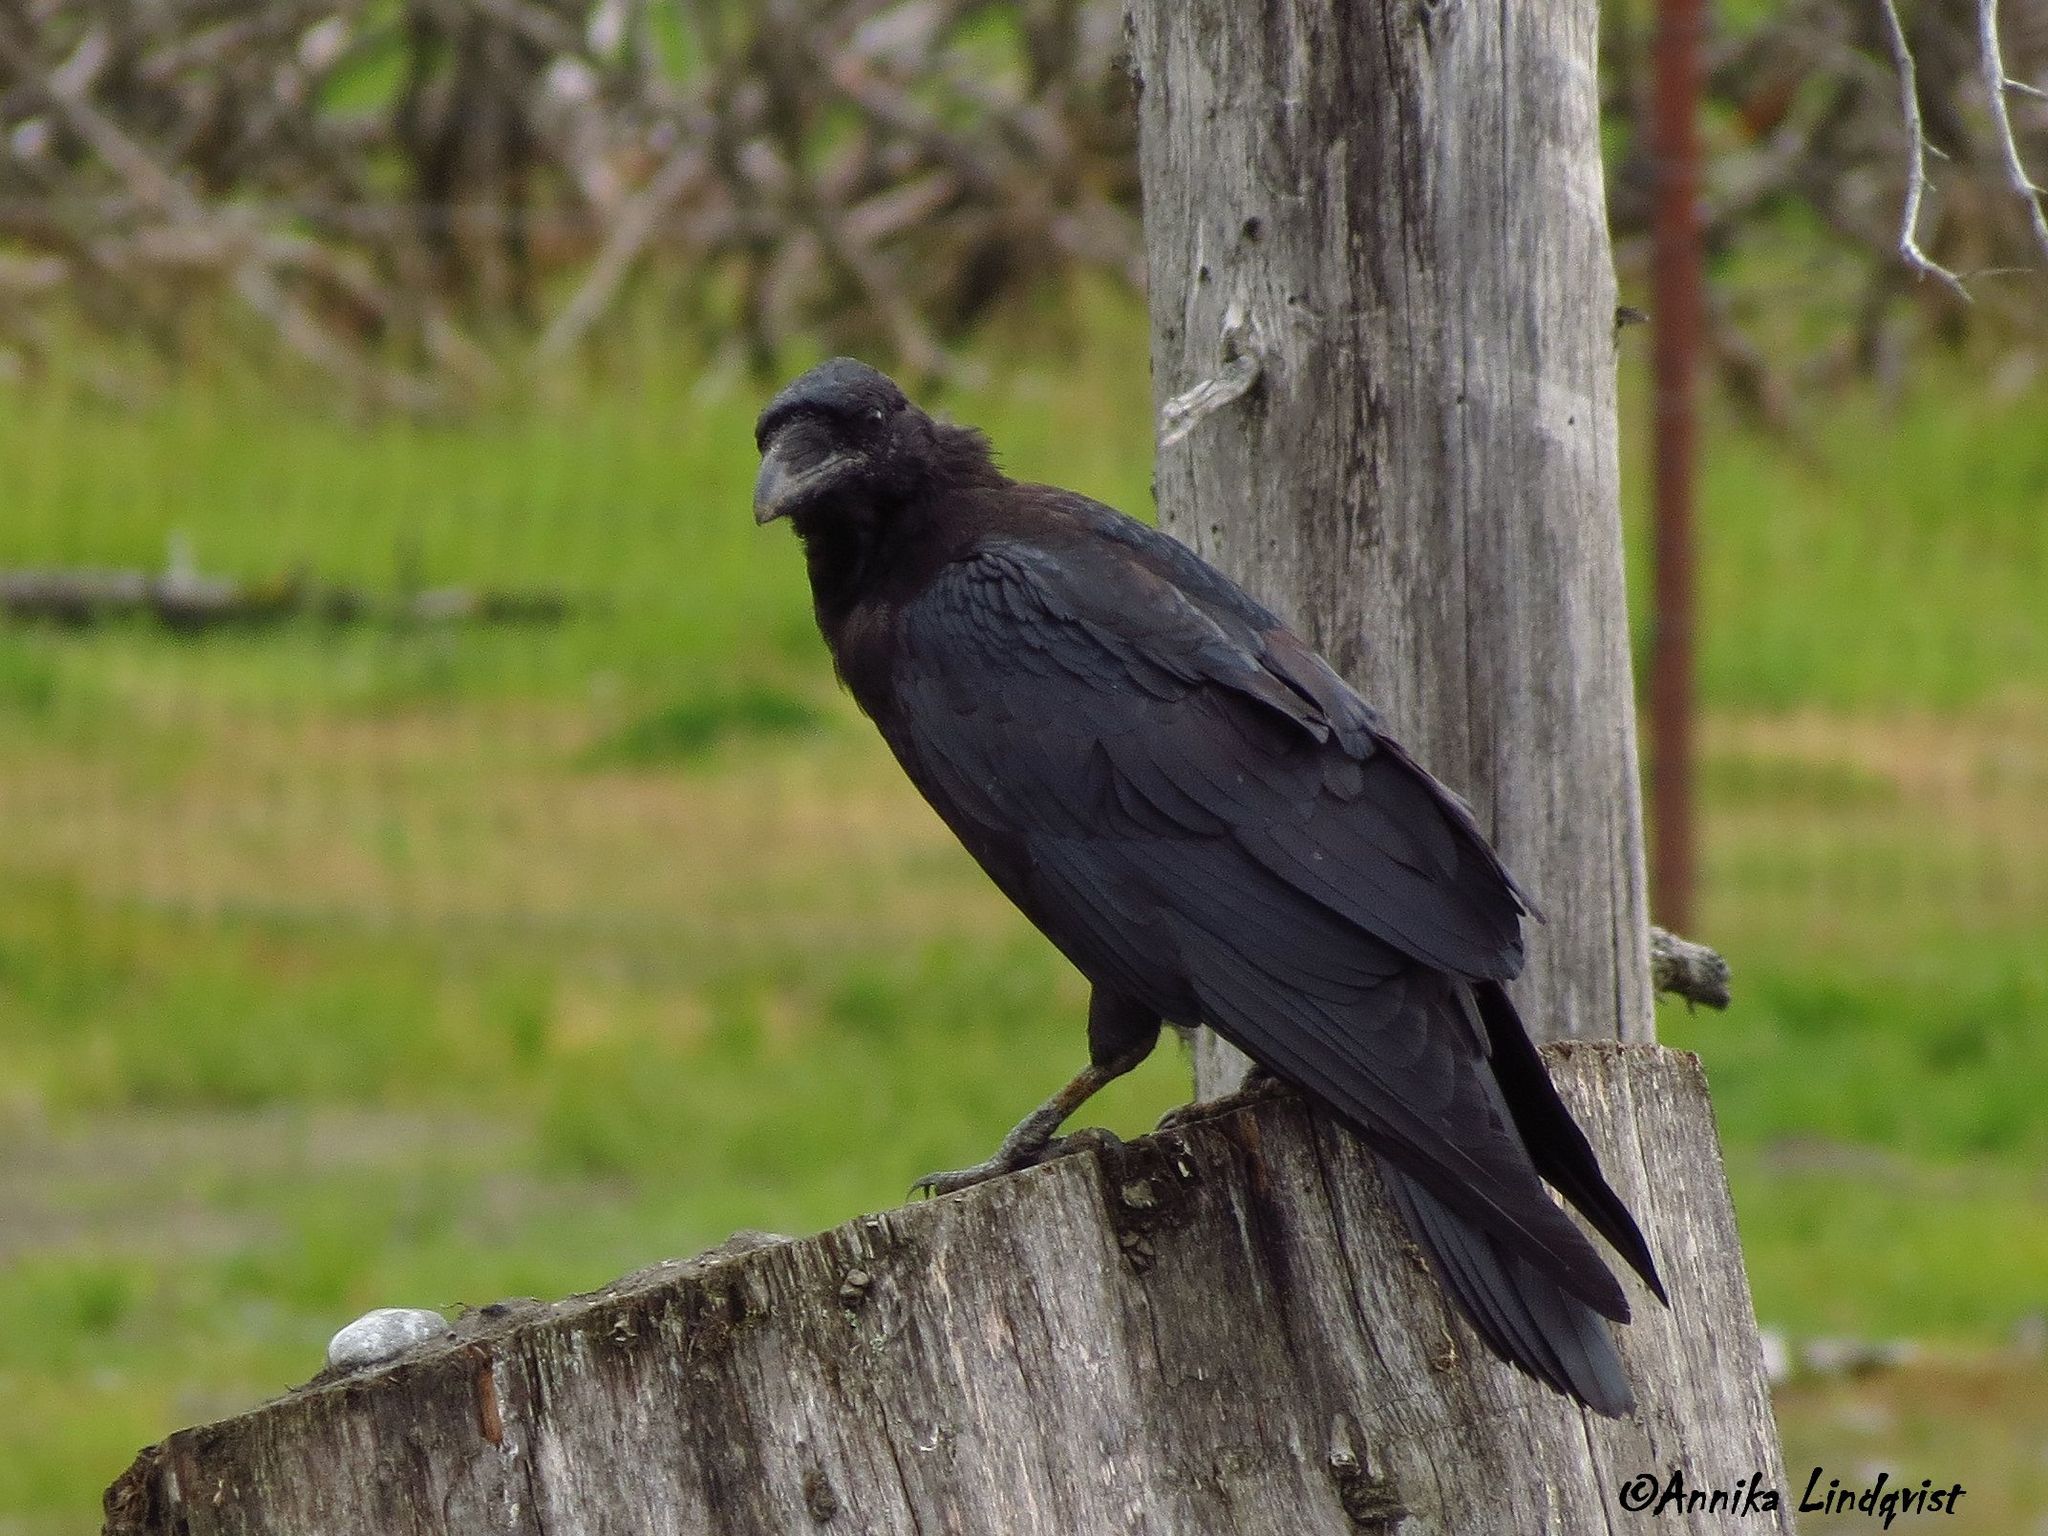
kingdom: Animalia
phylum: Chordata
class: Aves
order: Passeriformes
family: Corvidae
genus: Corvus
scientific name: Corvus corax
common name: Common raven
